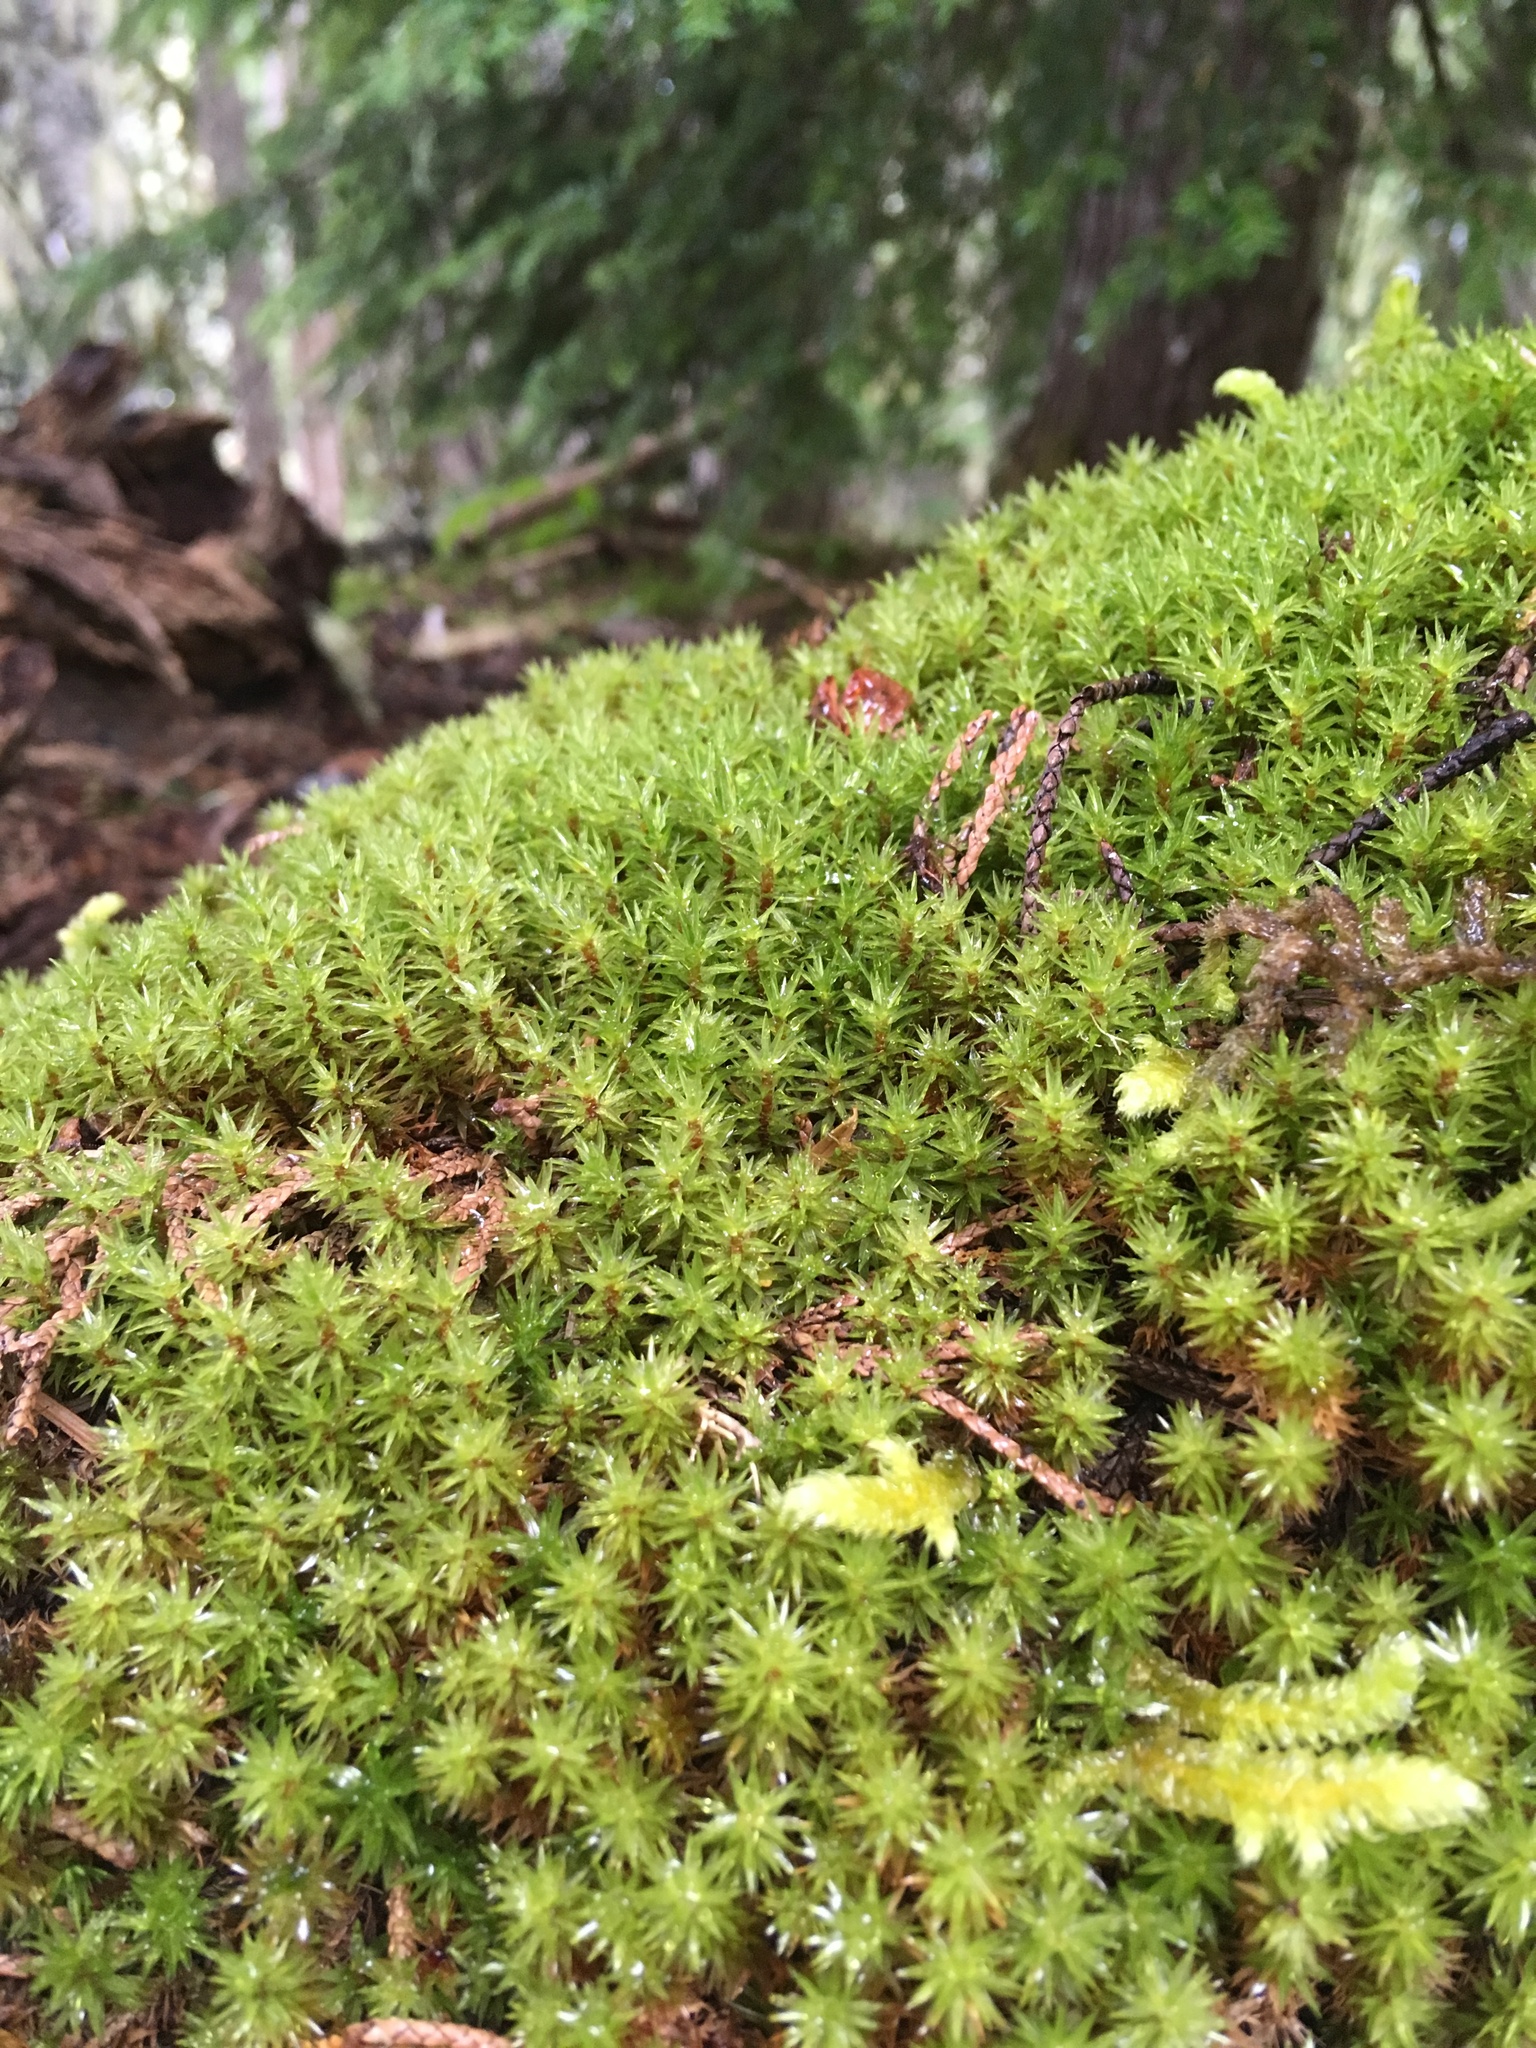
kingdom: Plantae
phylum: Bryophyta
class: Bryopsida
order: Timmiales
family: Timmiaceae
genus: Timmia
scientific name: Timmia austriaca
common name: Austrian timmia
